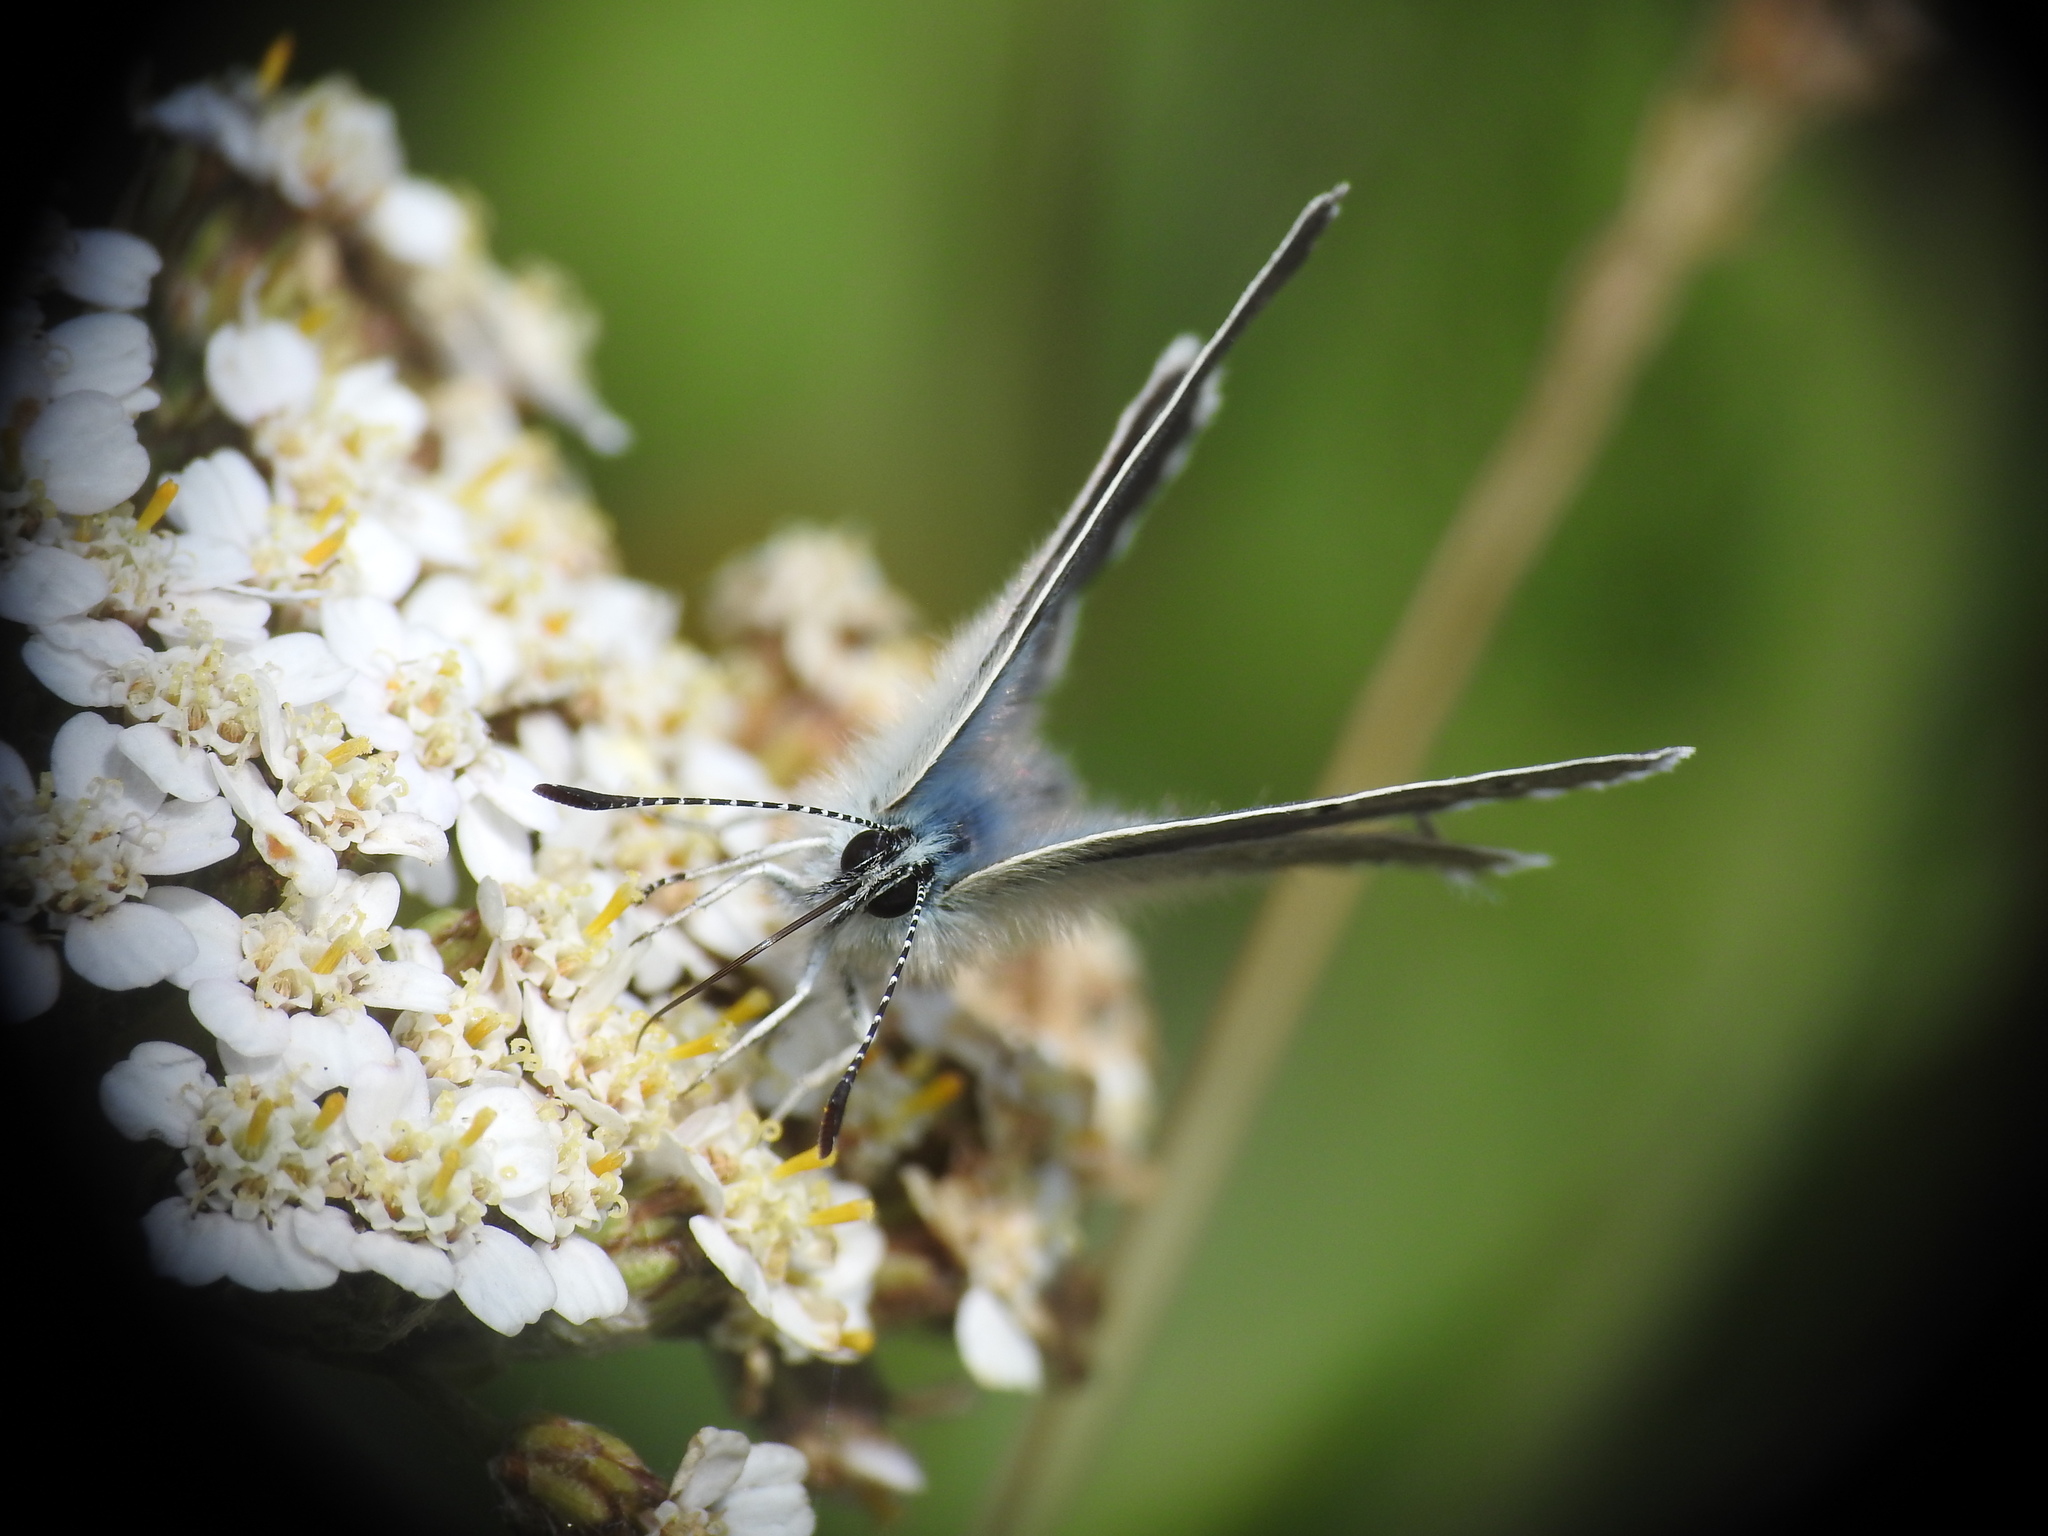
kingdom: Animalia
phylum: Arthropoda
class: Insecta
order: Lepidoptera
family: Lycaenidae
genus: Pseudoaricia
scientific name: Pseudoaricia nicias
